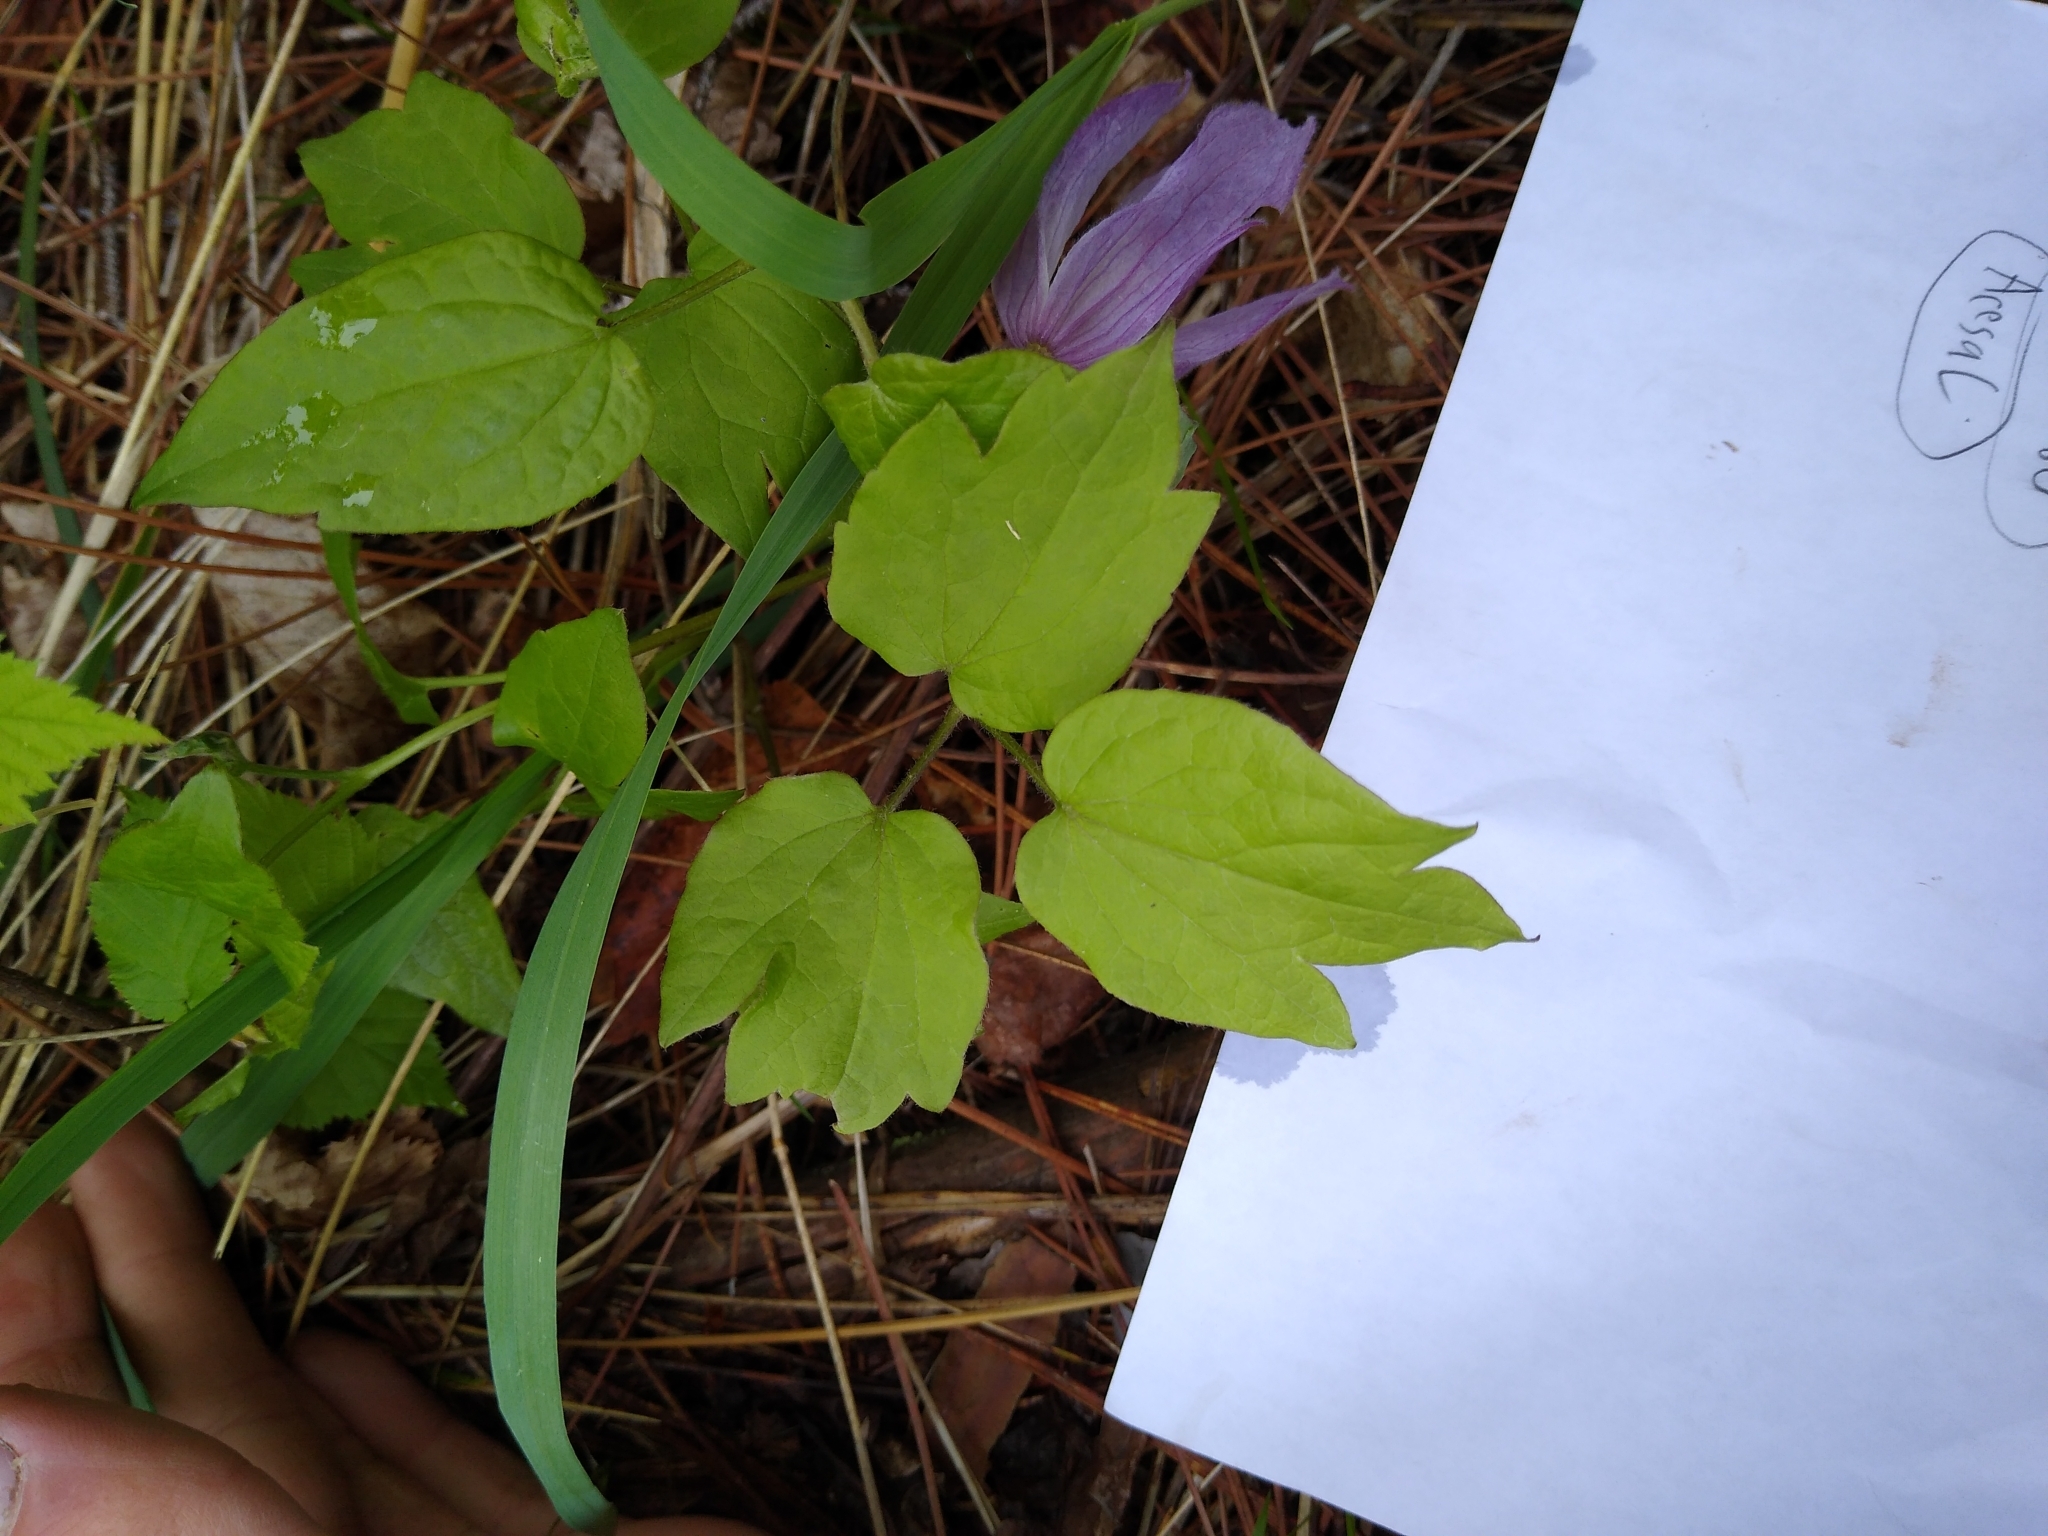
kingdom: Plantae
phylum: Tracheophyta
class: Magnoliopsida
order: Ranunculales
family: Ranunculaceae
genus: Clematis
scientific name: Clematis occidentalis
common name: Purple clematis
